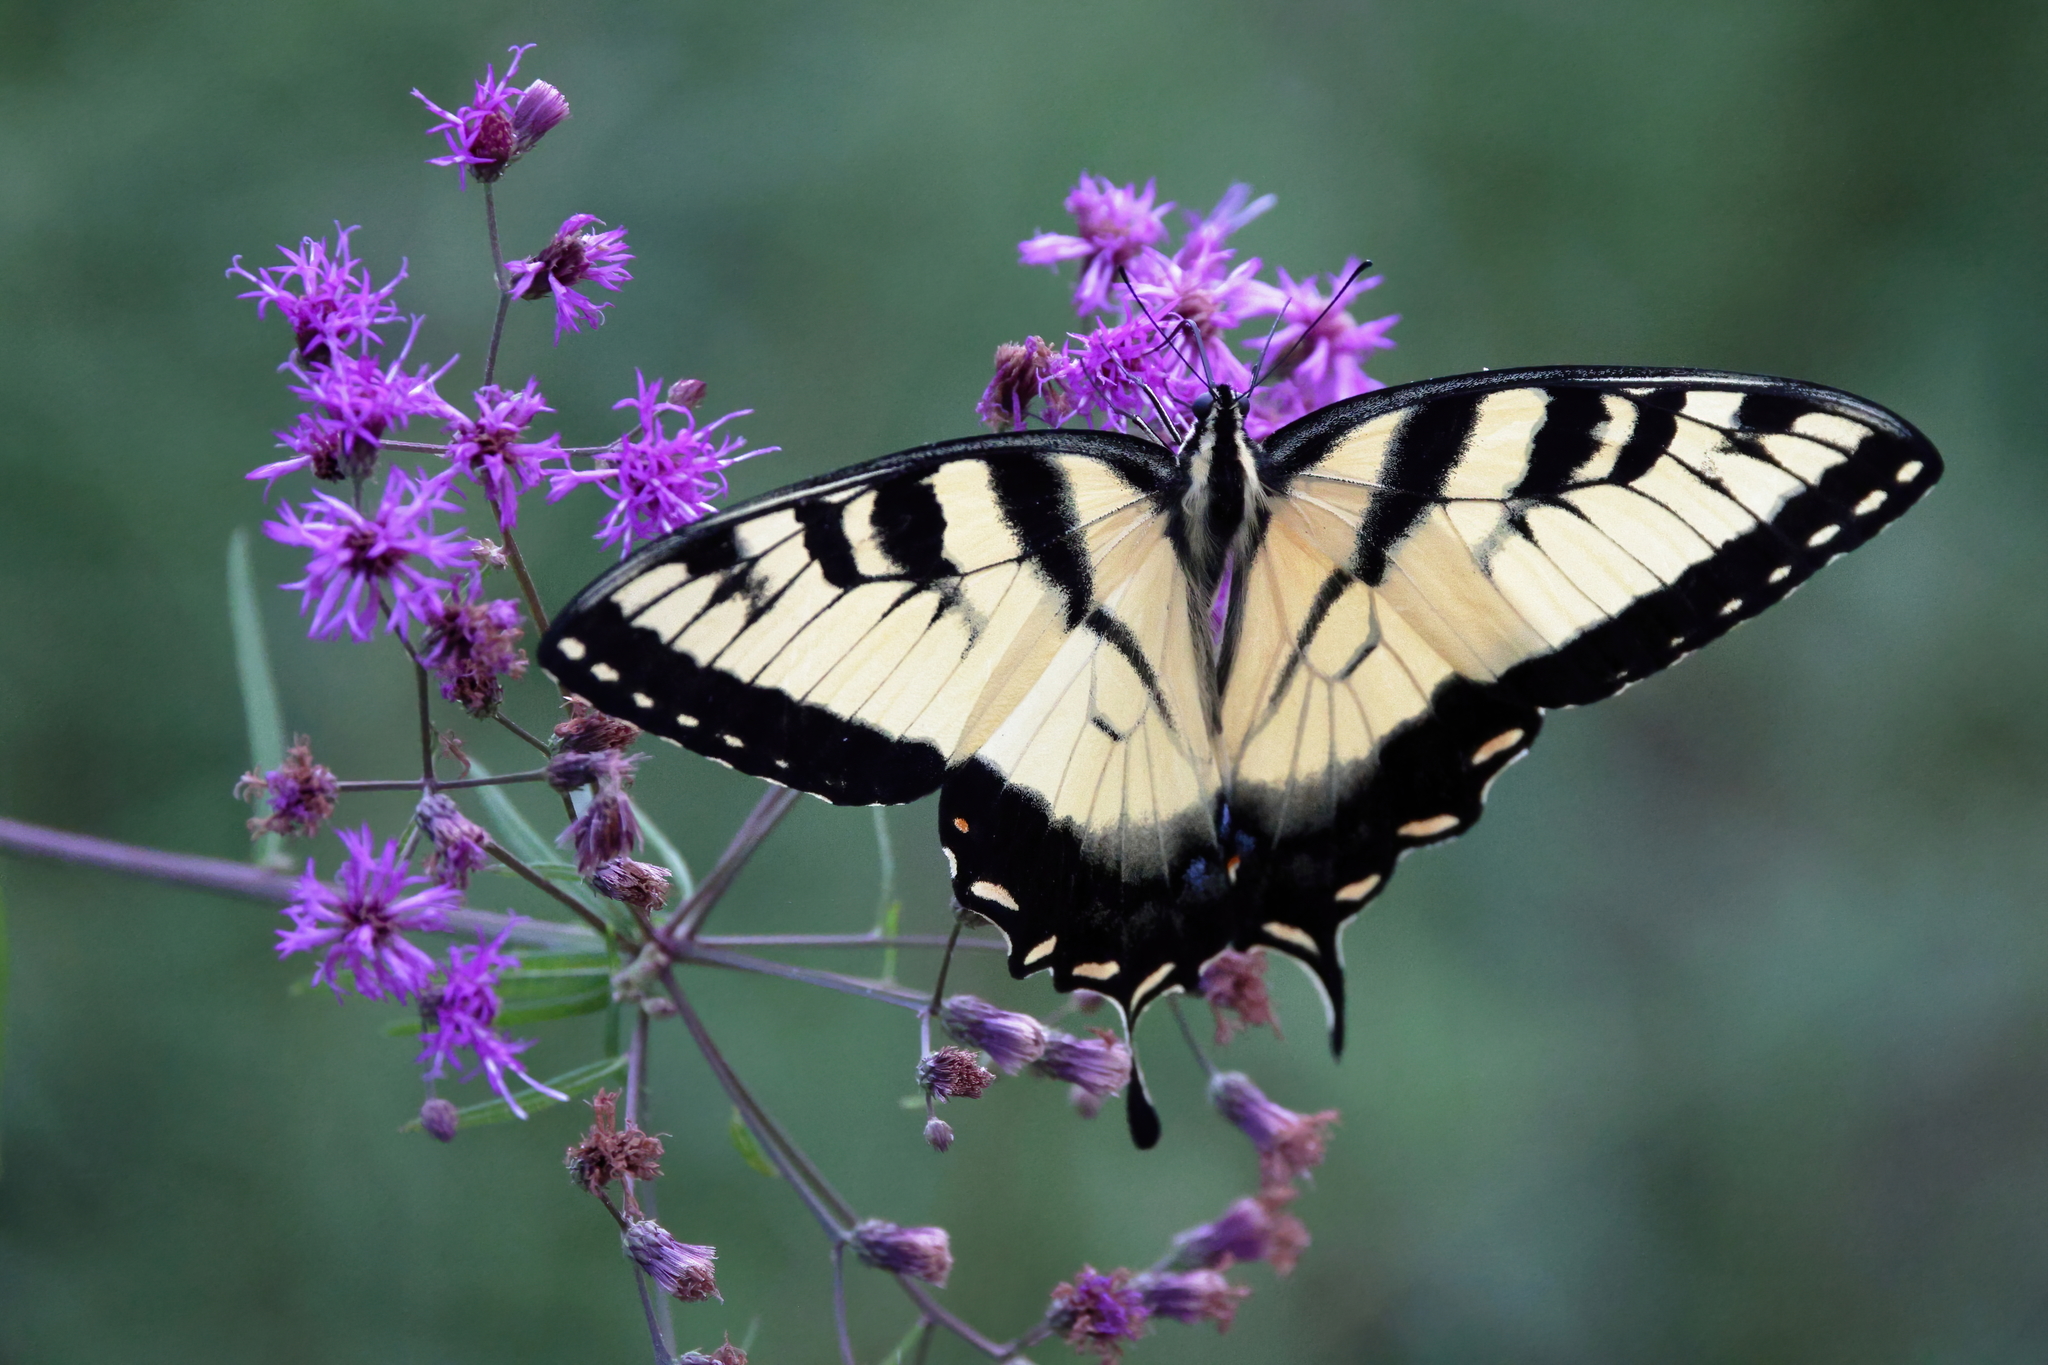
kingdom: Animalia
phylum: Arthropoda
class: Insecta
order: Lepidoptera
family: Papilionidae
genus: Papilio
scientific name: Papilio glaucus
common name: Tiger swallowtail
